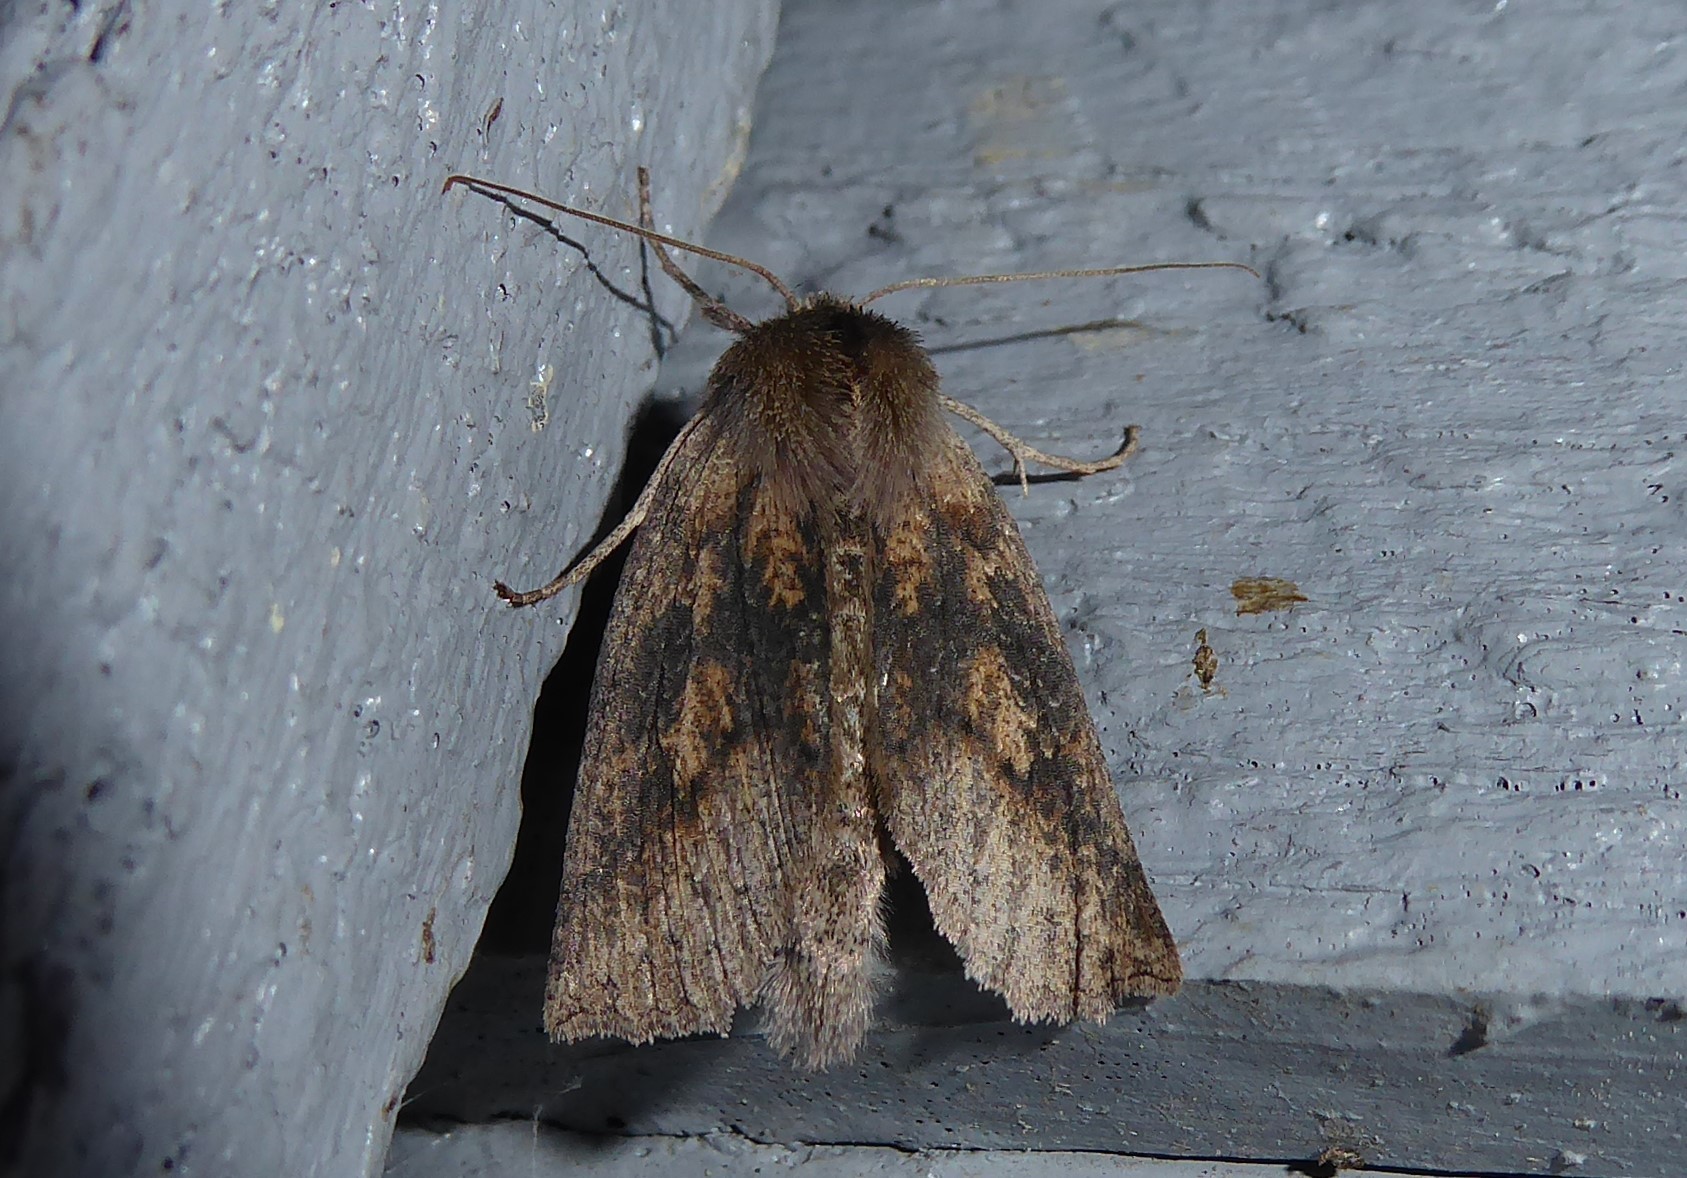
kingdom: Animalia
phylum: Arthropoda
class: Insecta
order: Lepidoptera
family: Geometridae
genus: Declana
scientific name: Declana leptomera
